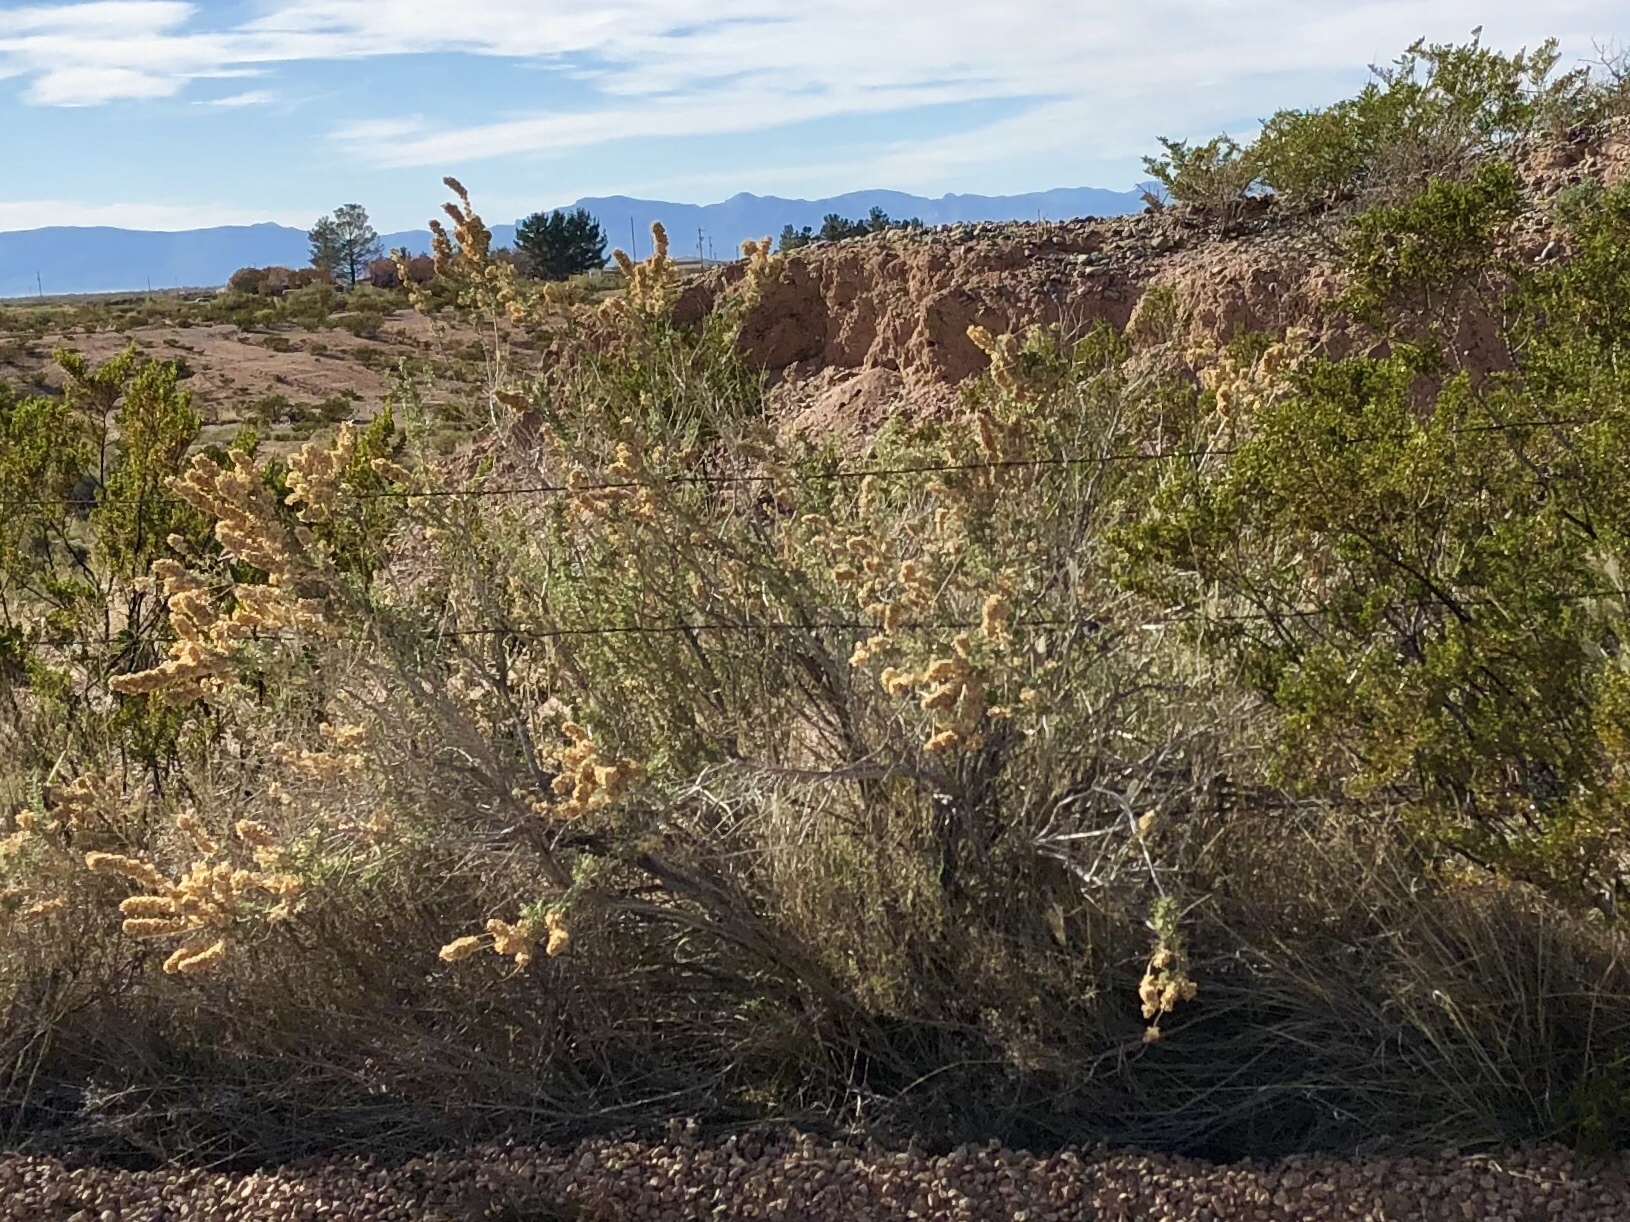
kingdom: Plantae
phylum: Tracheophyta
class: Magnoliopsida
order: Caryophyllales
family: Amaranthaceae
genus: Atriplex
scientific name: Atriplex canescens
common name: Four-wing saltbush
